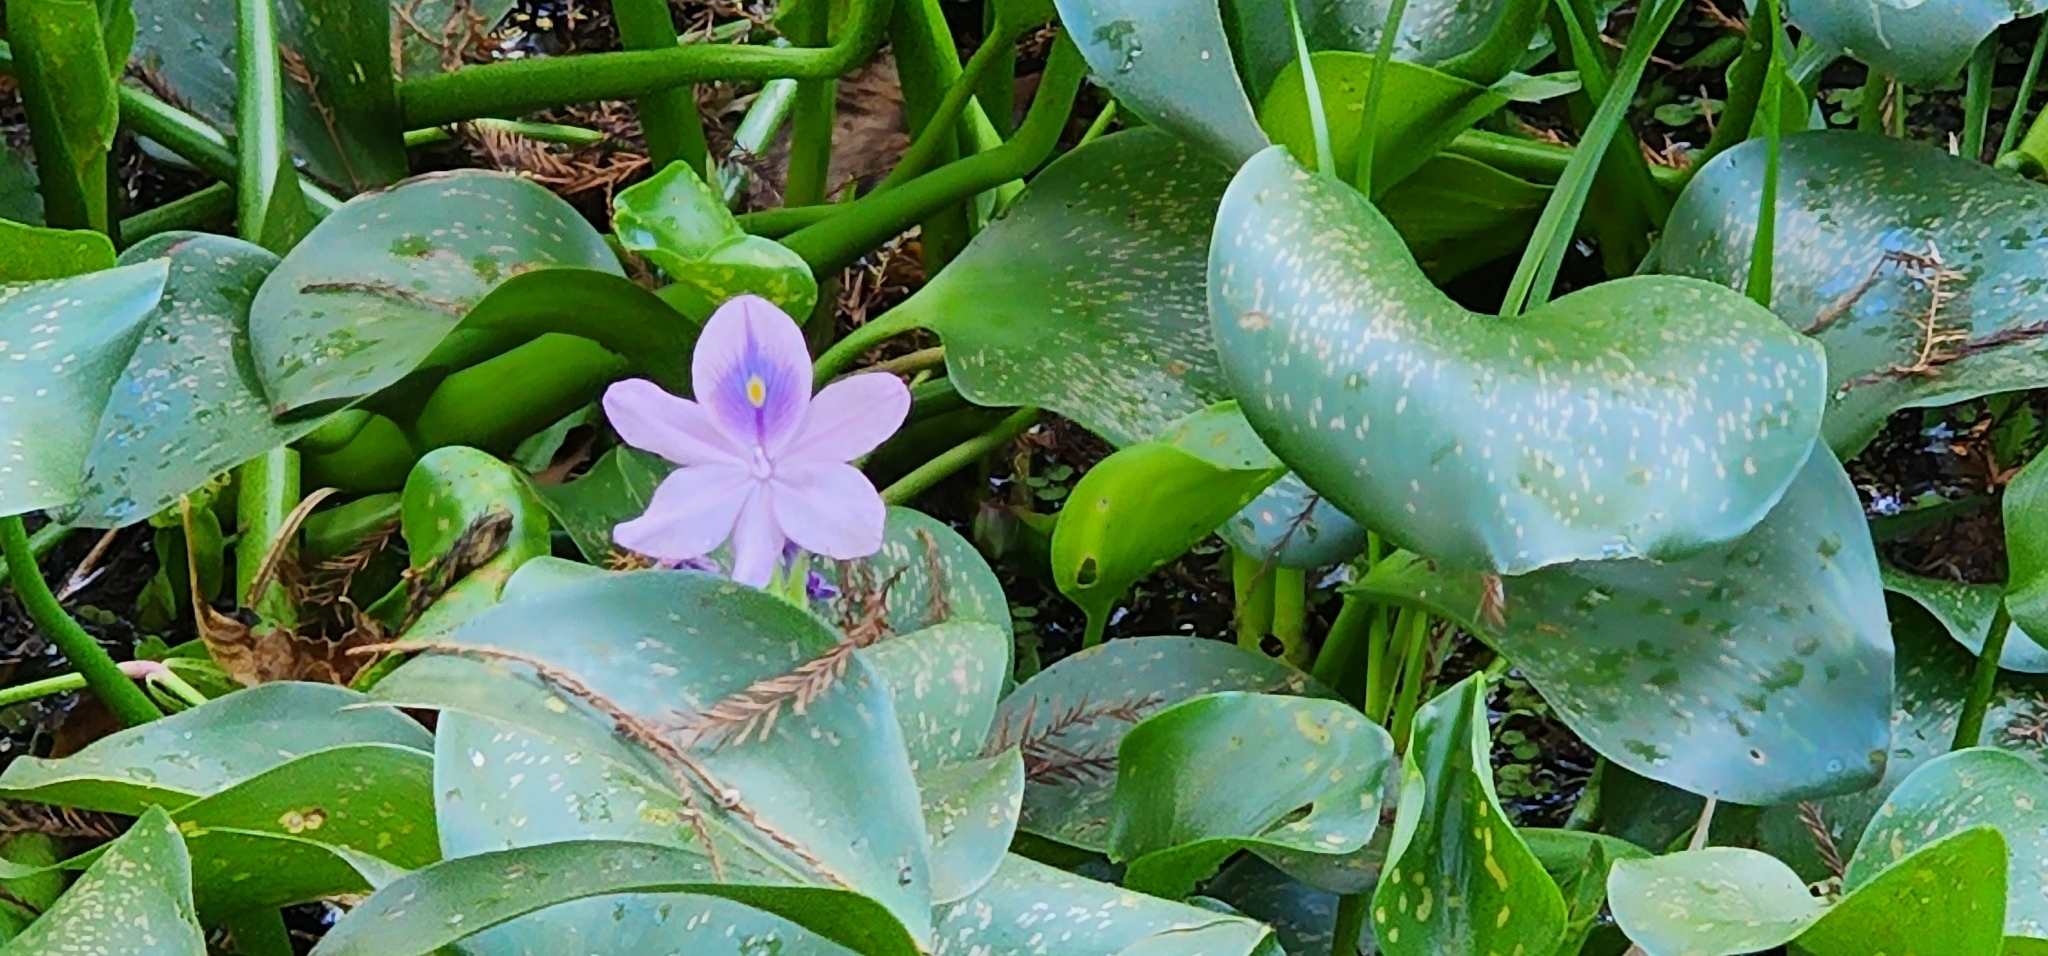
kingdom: Plantae
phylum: Tracheophyta
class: Liliopsida
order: Commelinales
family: Pontederiaceae
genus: Pontederia
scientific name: Pontederia crassipes
